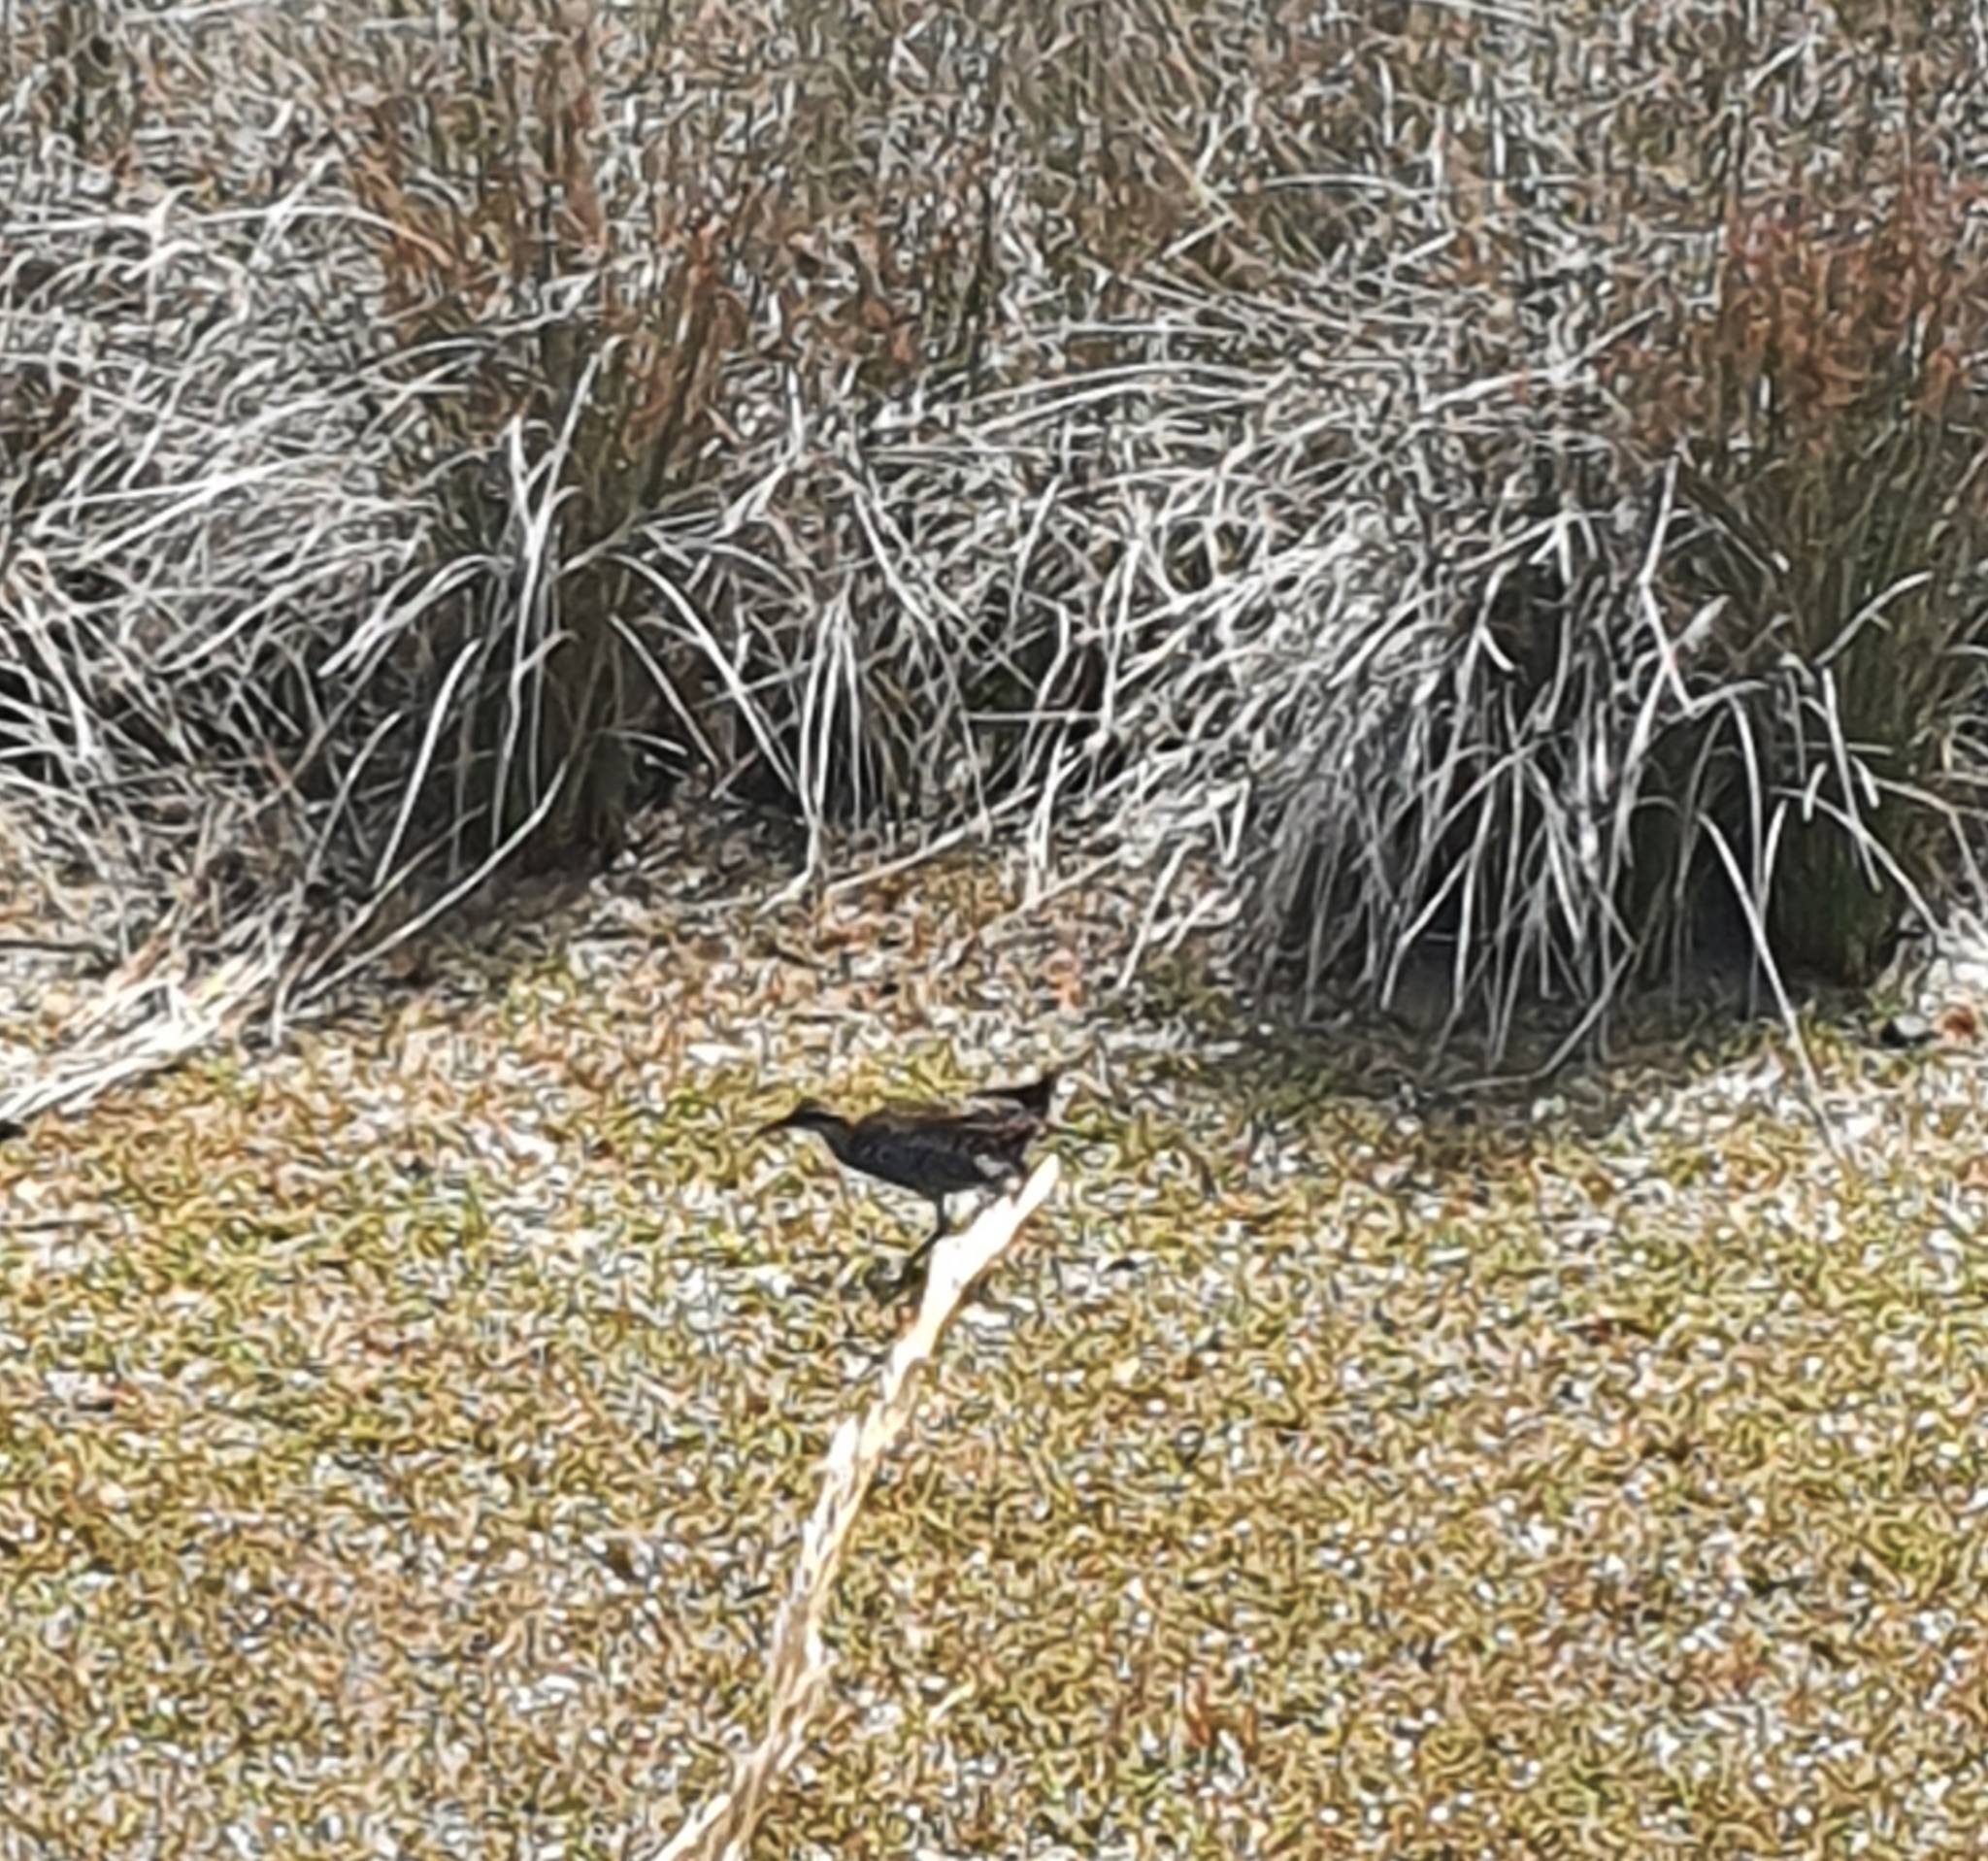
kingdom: Animalia
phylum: Chordata
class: Aves
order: Gruiformes
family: Rallidae
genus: Gallirallus
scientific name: Gallirallus philippensis
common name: Buff-banded rail
